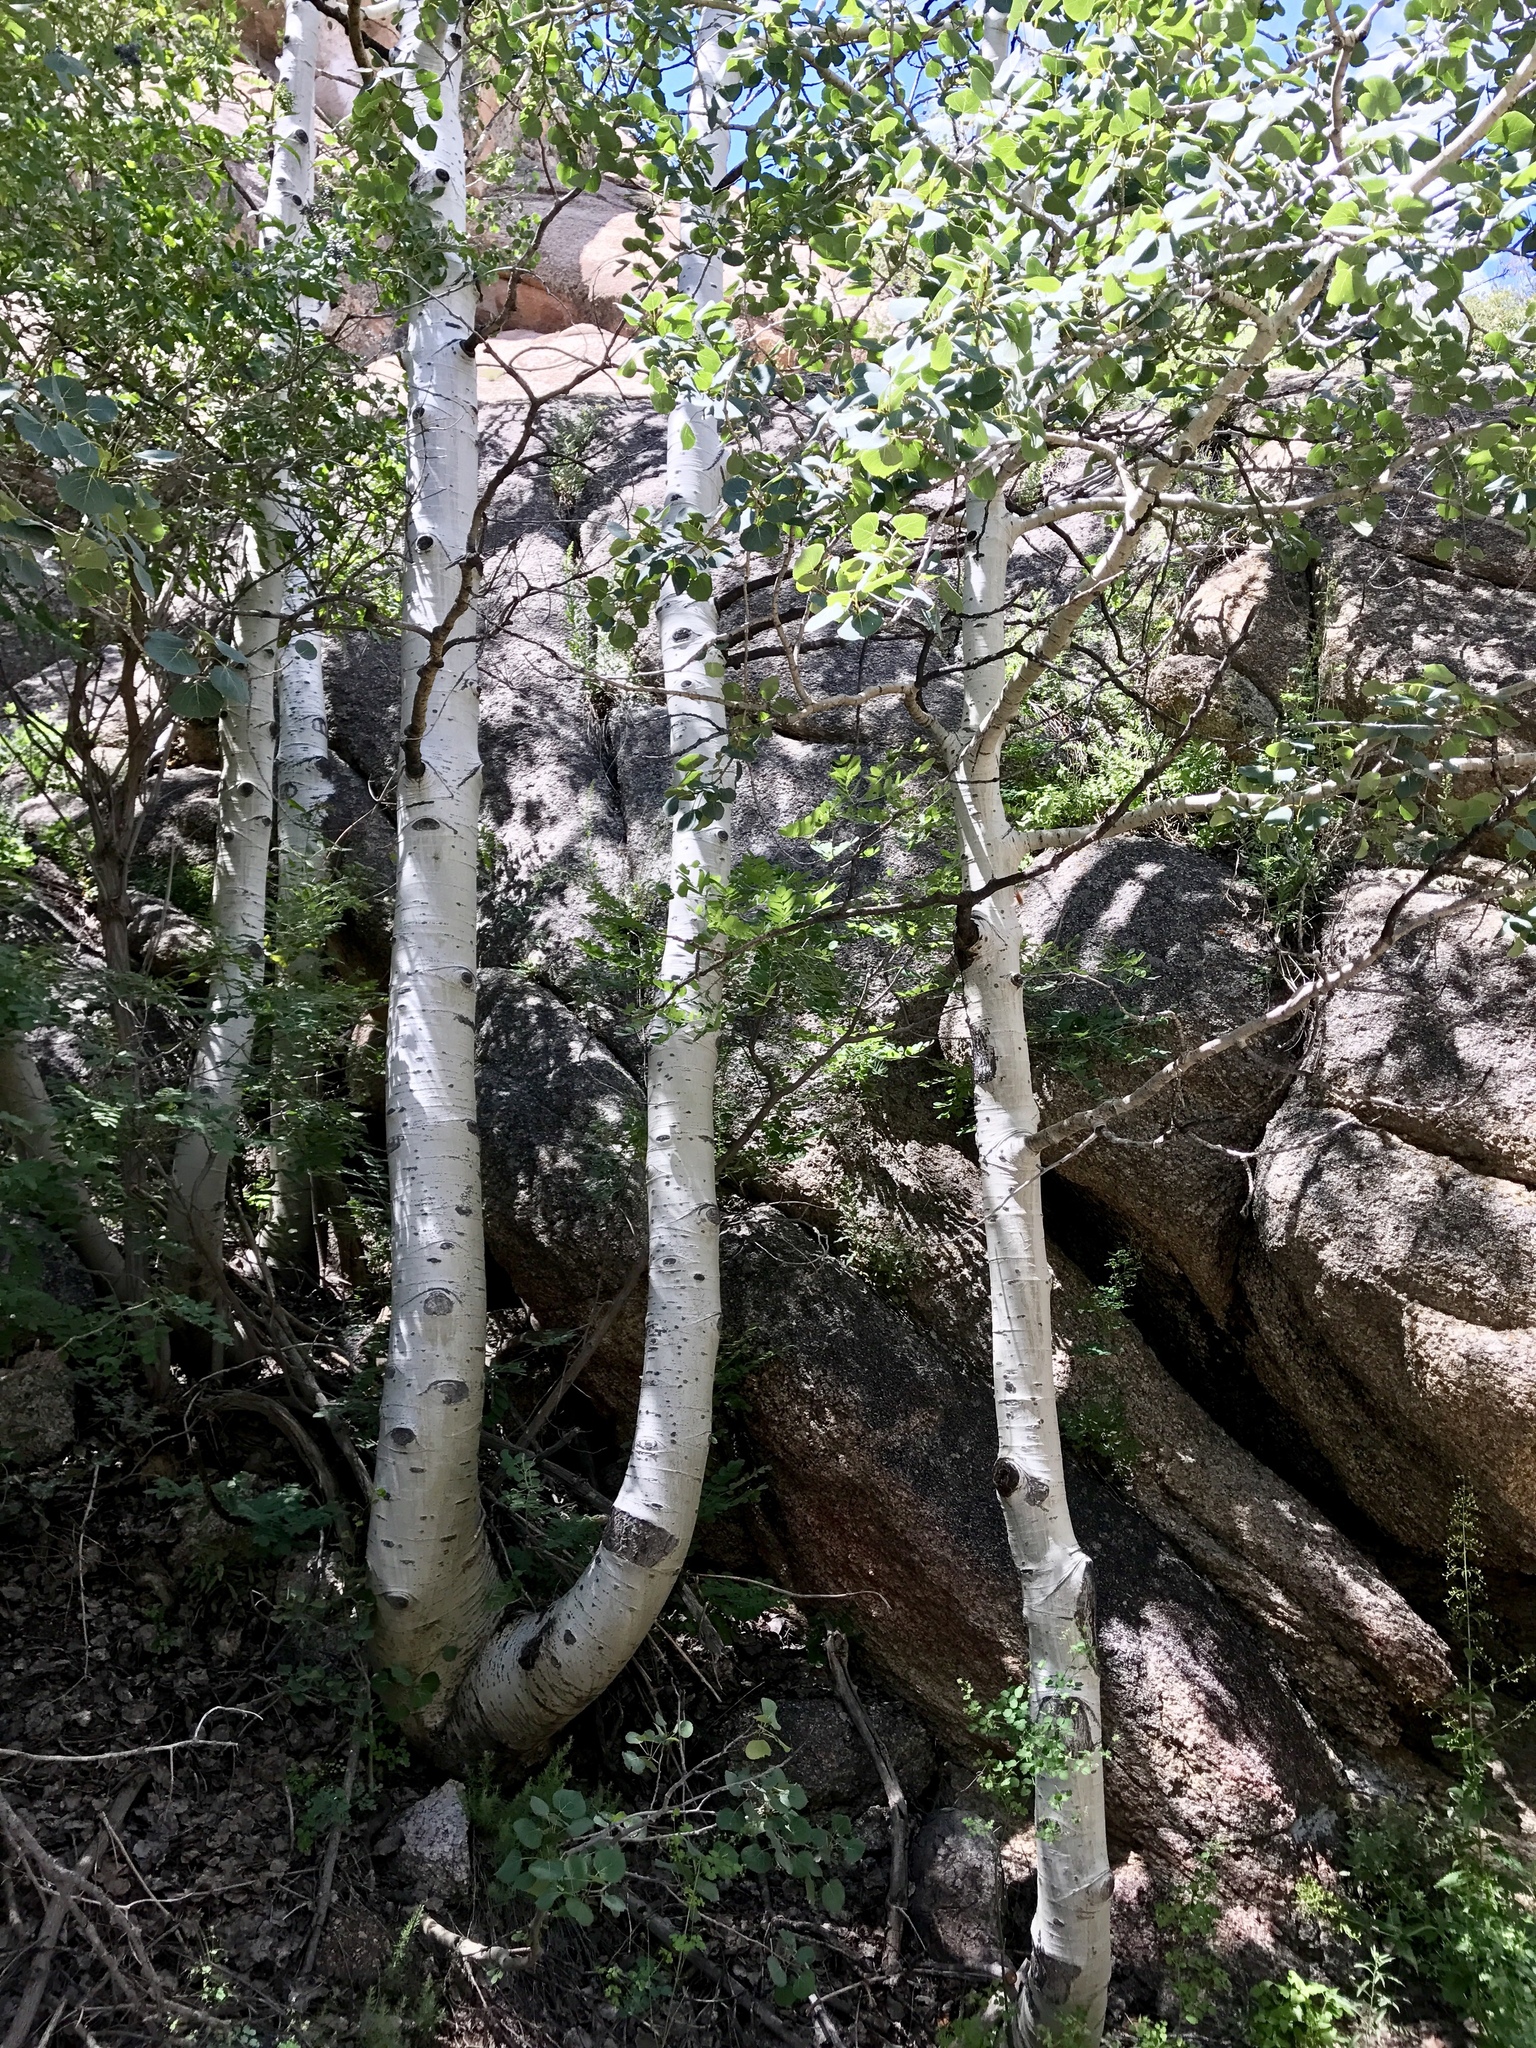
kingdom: Plantae
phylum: Tracheophyta
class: Magnoliopsida
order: Malpighiales
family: Salicaceae
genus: Populus
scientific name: Populus tremuloides
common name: Quaking aspen
